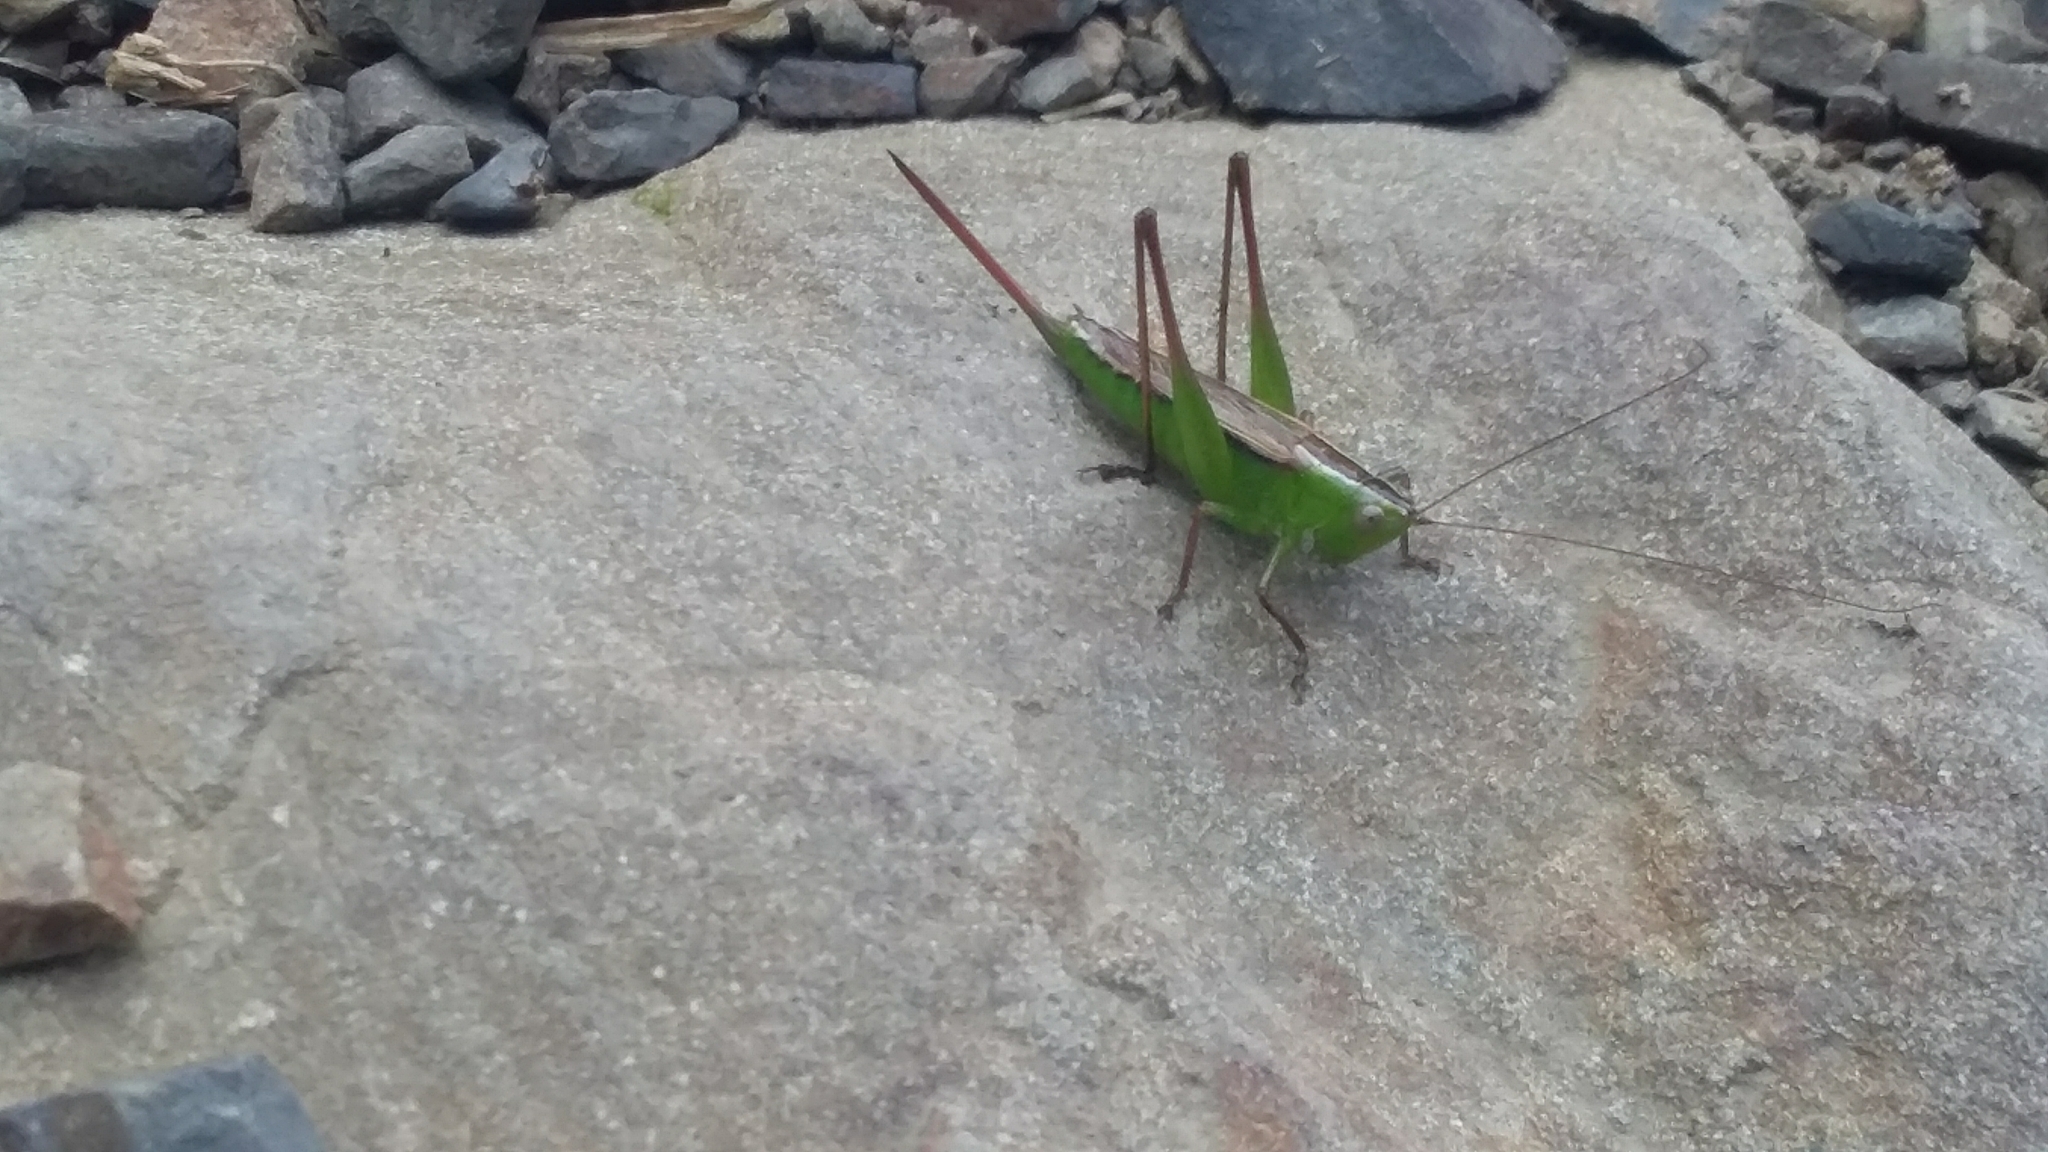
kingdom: Animalia
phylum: Arthropoda
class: Insecta
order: Orthoptera
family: Tettigoniidae
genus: Conocephalus
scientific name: Conocephalus albescens
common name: Whitish meadow katydid
